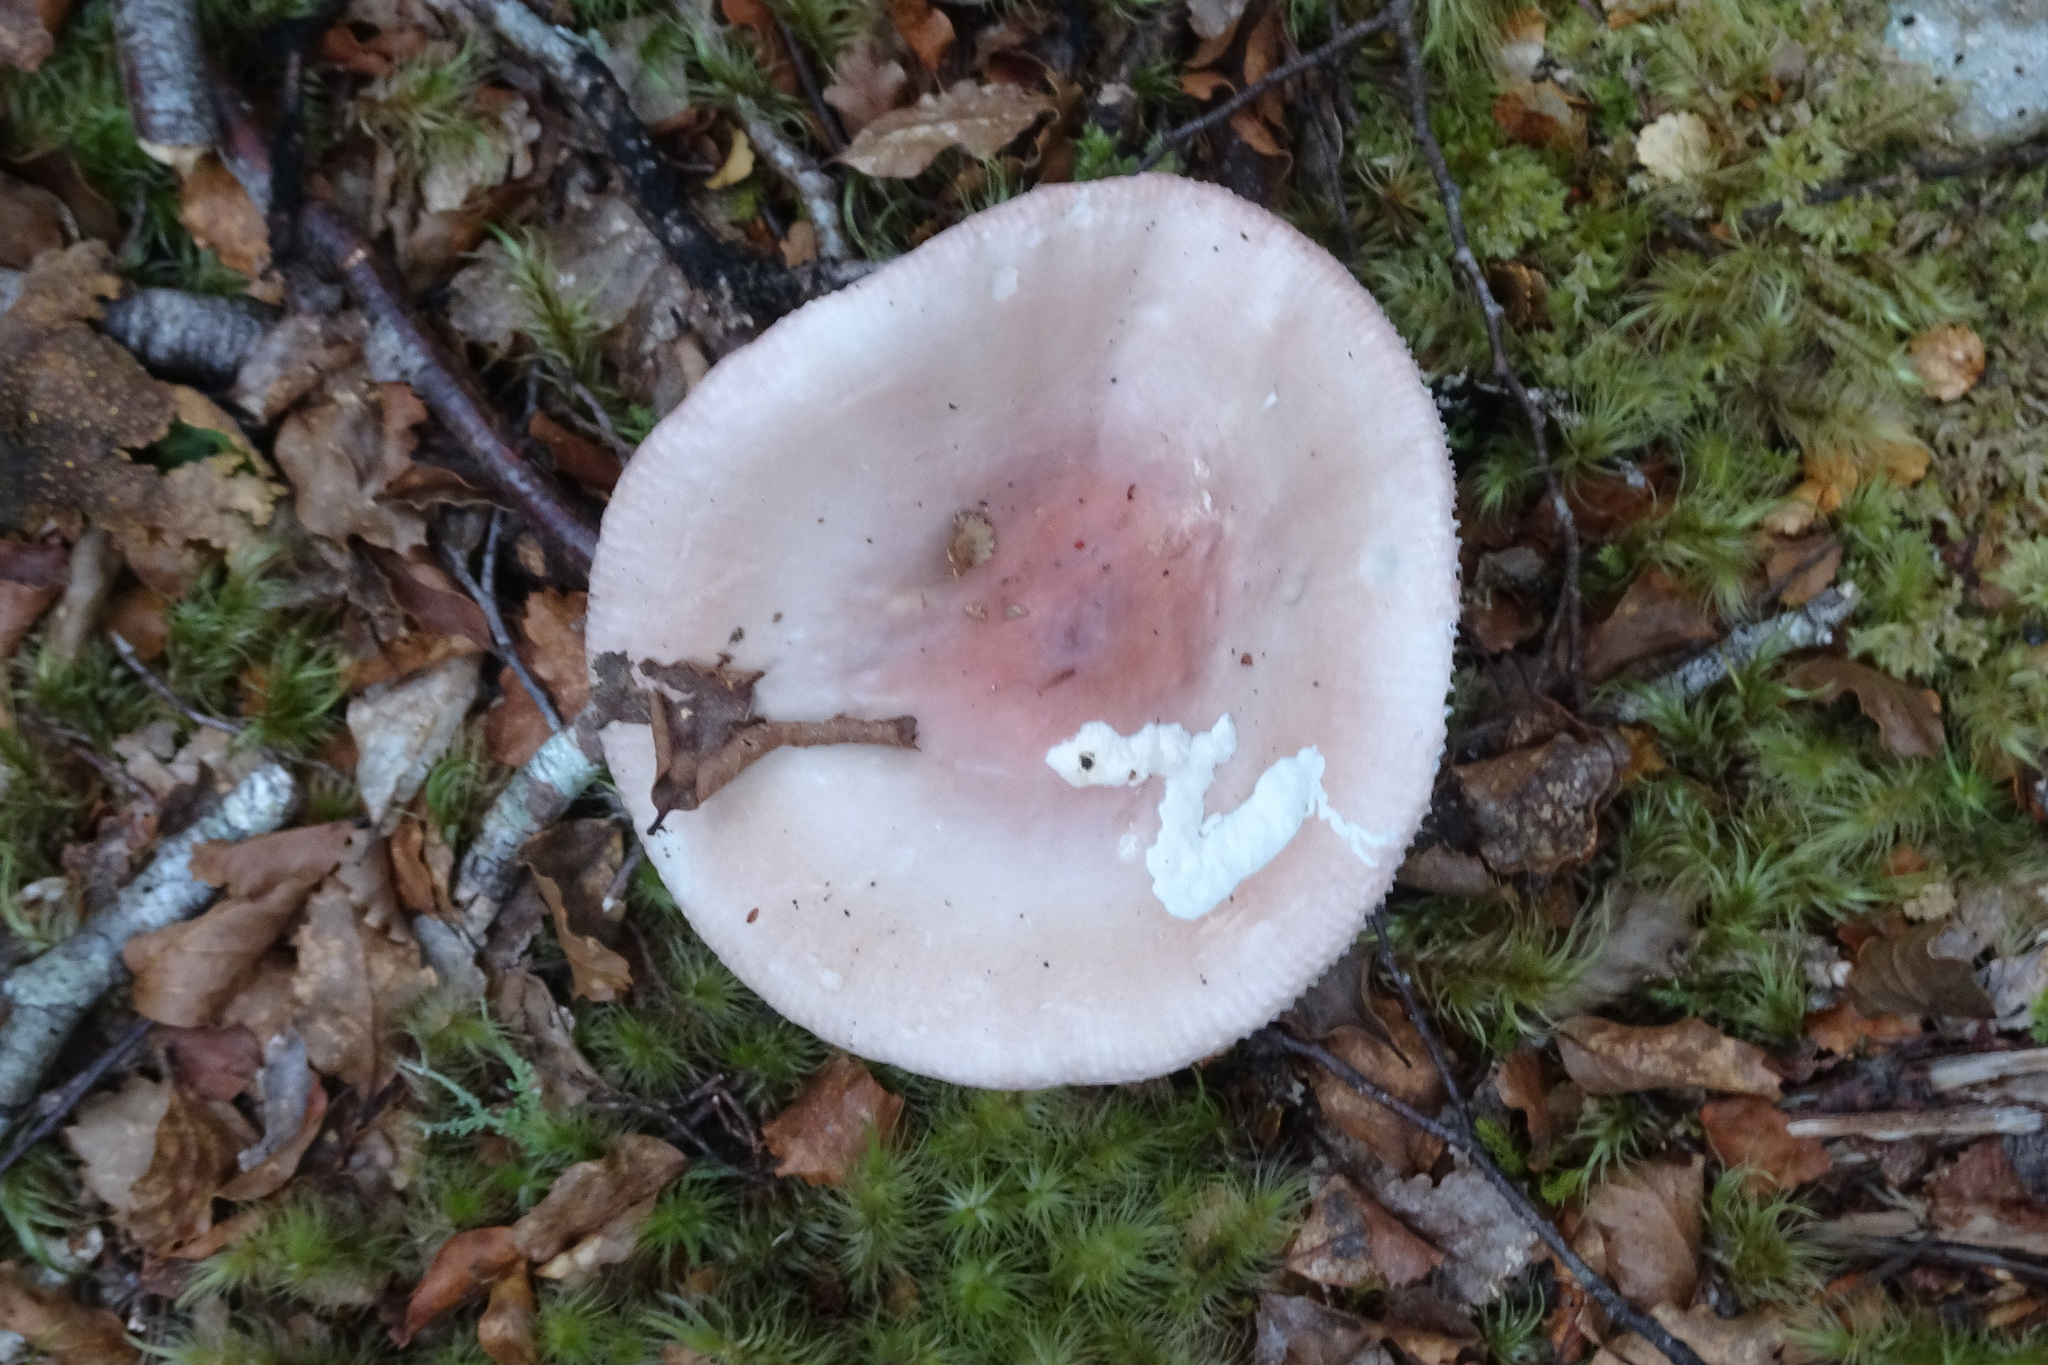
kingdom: Fungi
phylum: Basidiomycota
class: Agaricomycetes
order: Russulales
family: Russulaceae
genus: Russula
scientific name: Russula purpureotincta
